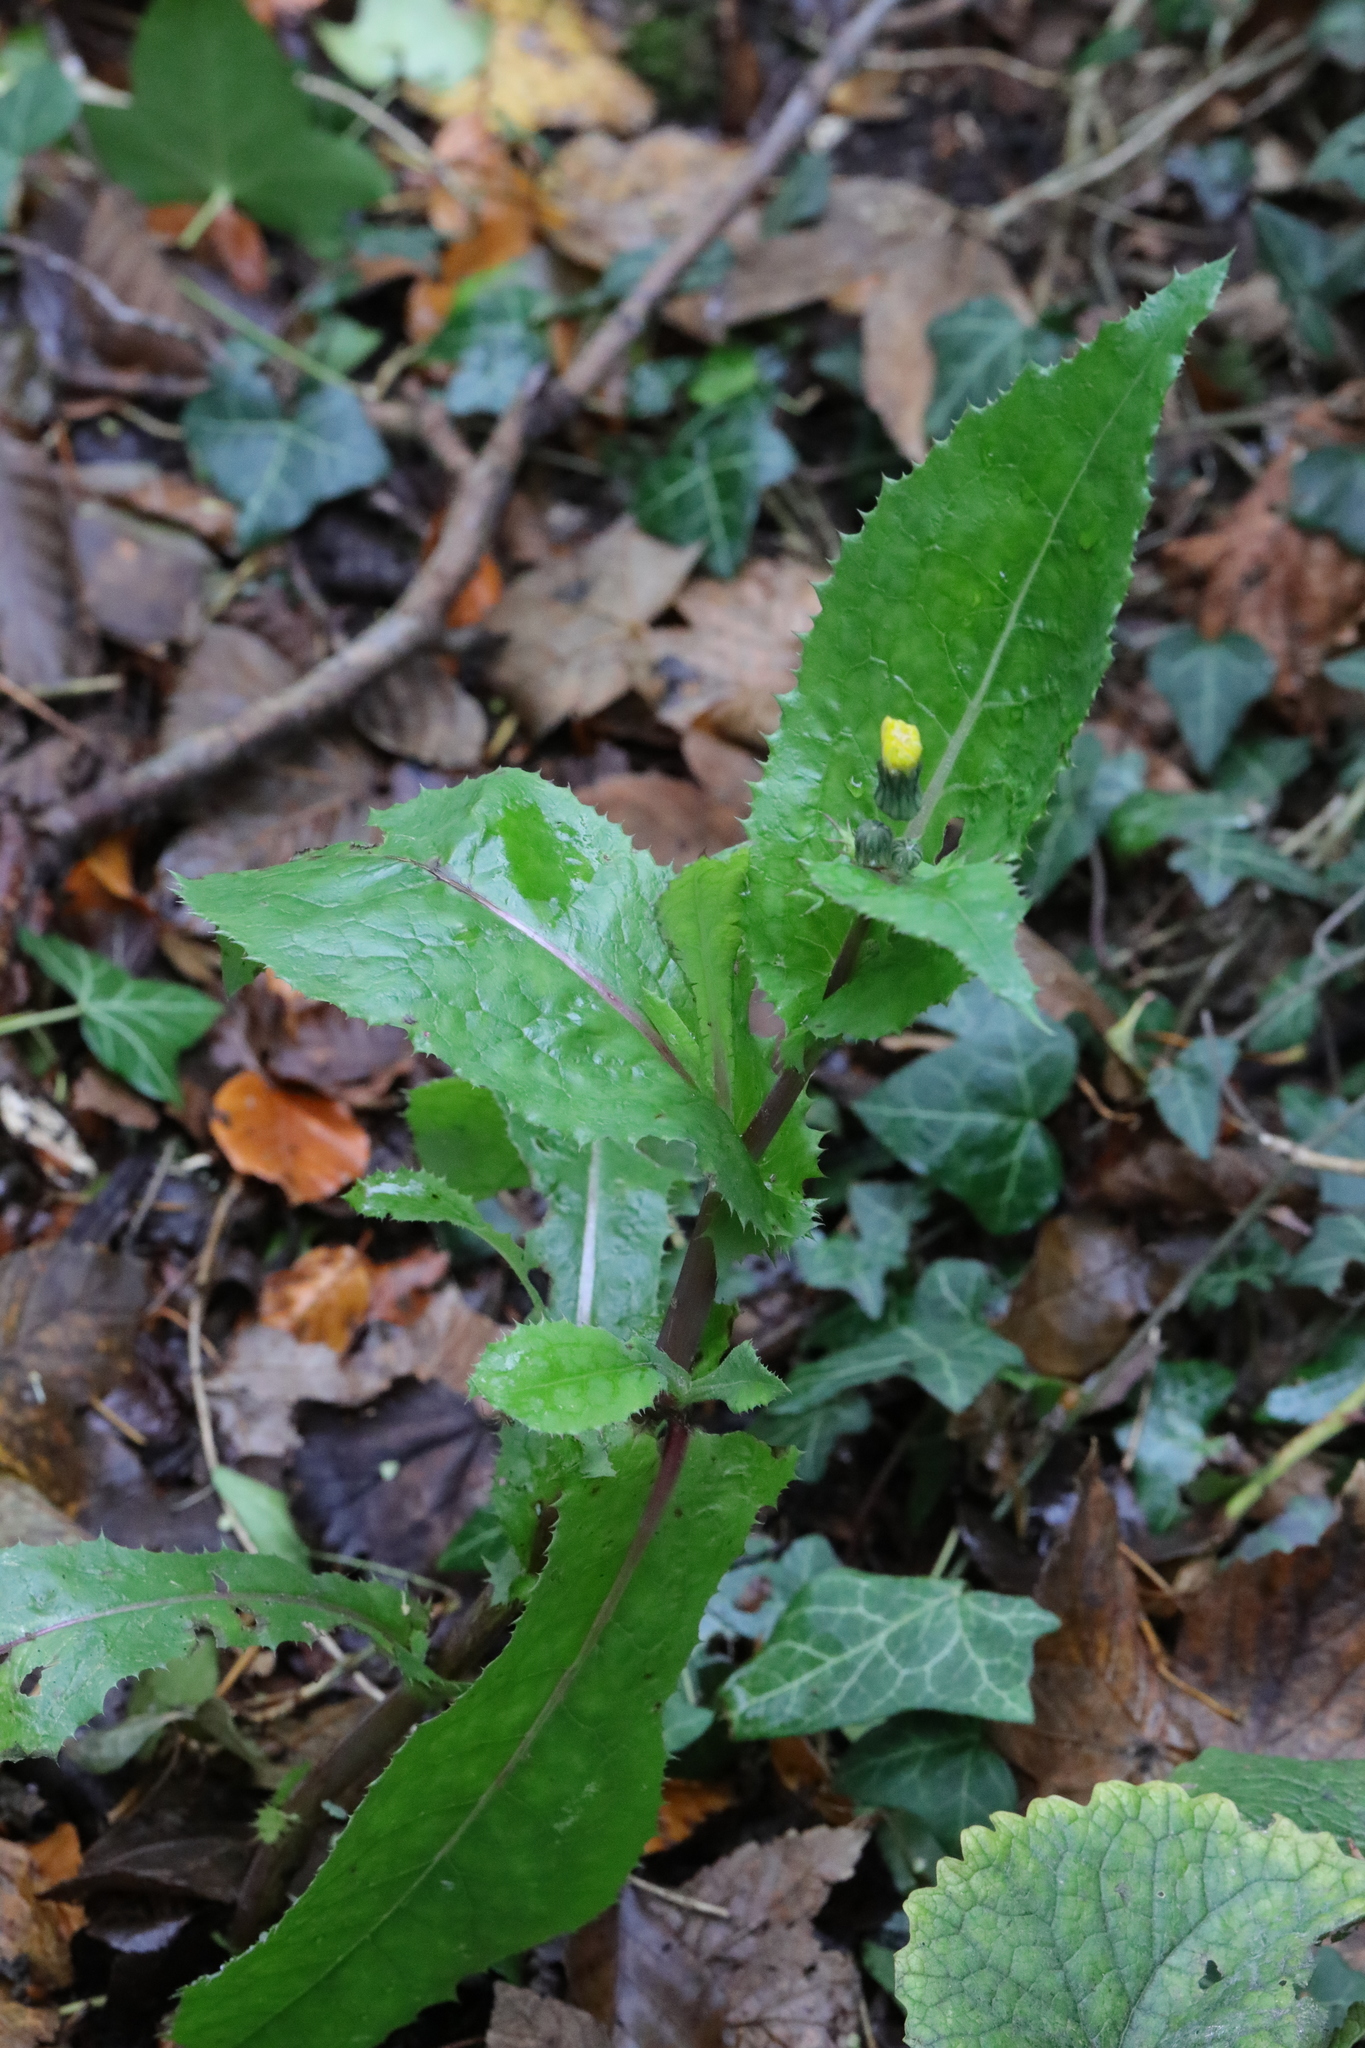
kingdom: Plantae
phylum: Tracheophyta
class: Magnoliopsida
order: Asterales
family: Asteraceae
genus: Sonchus
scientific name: Sonchus oleraceus
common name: Common sowthistle
